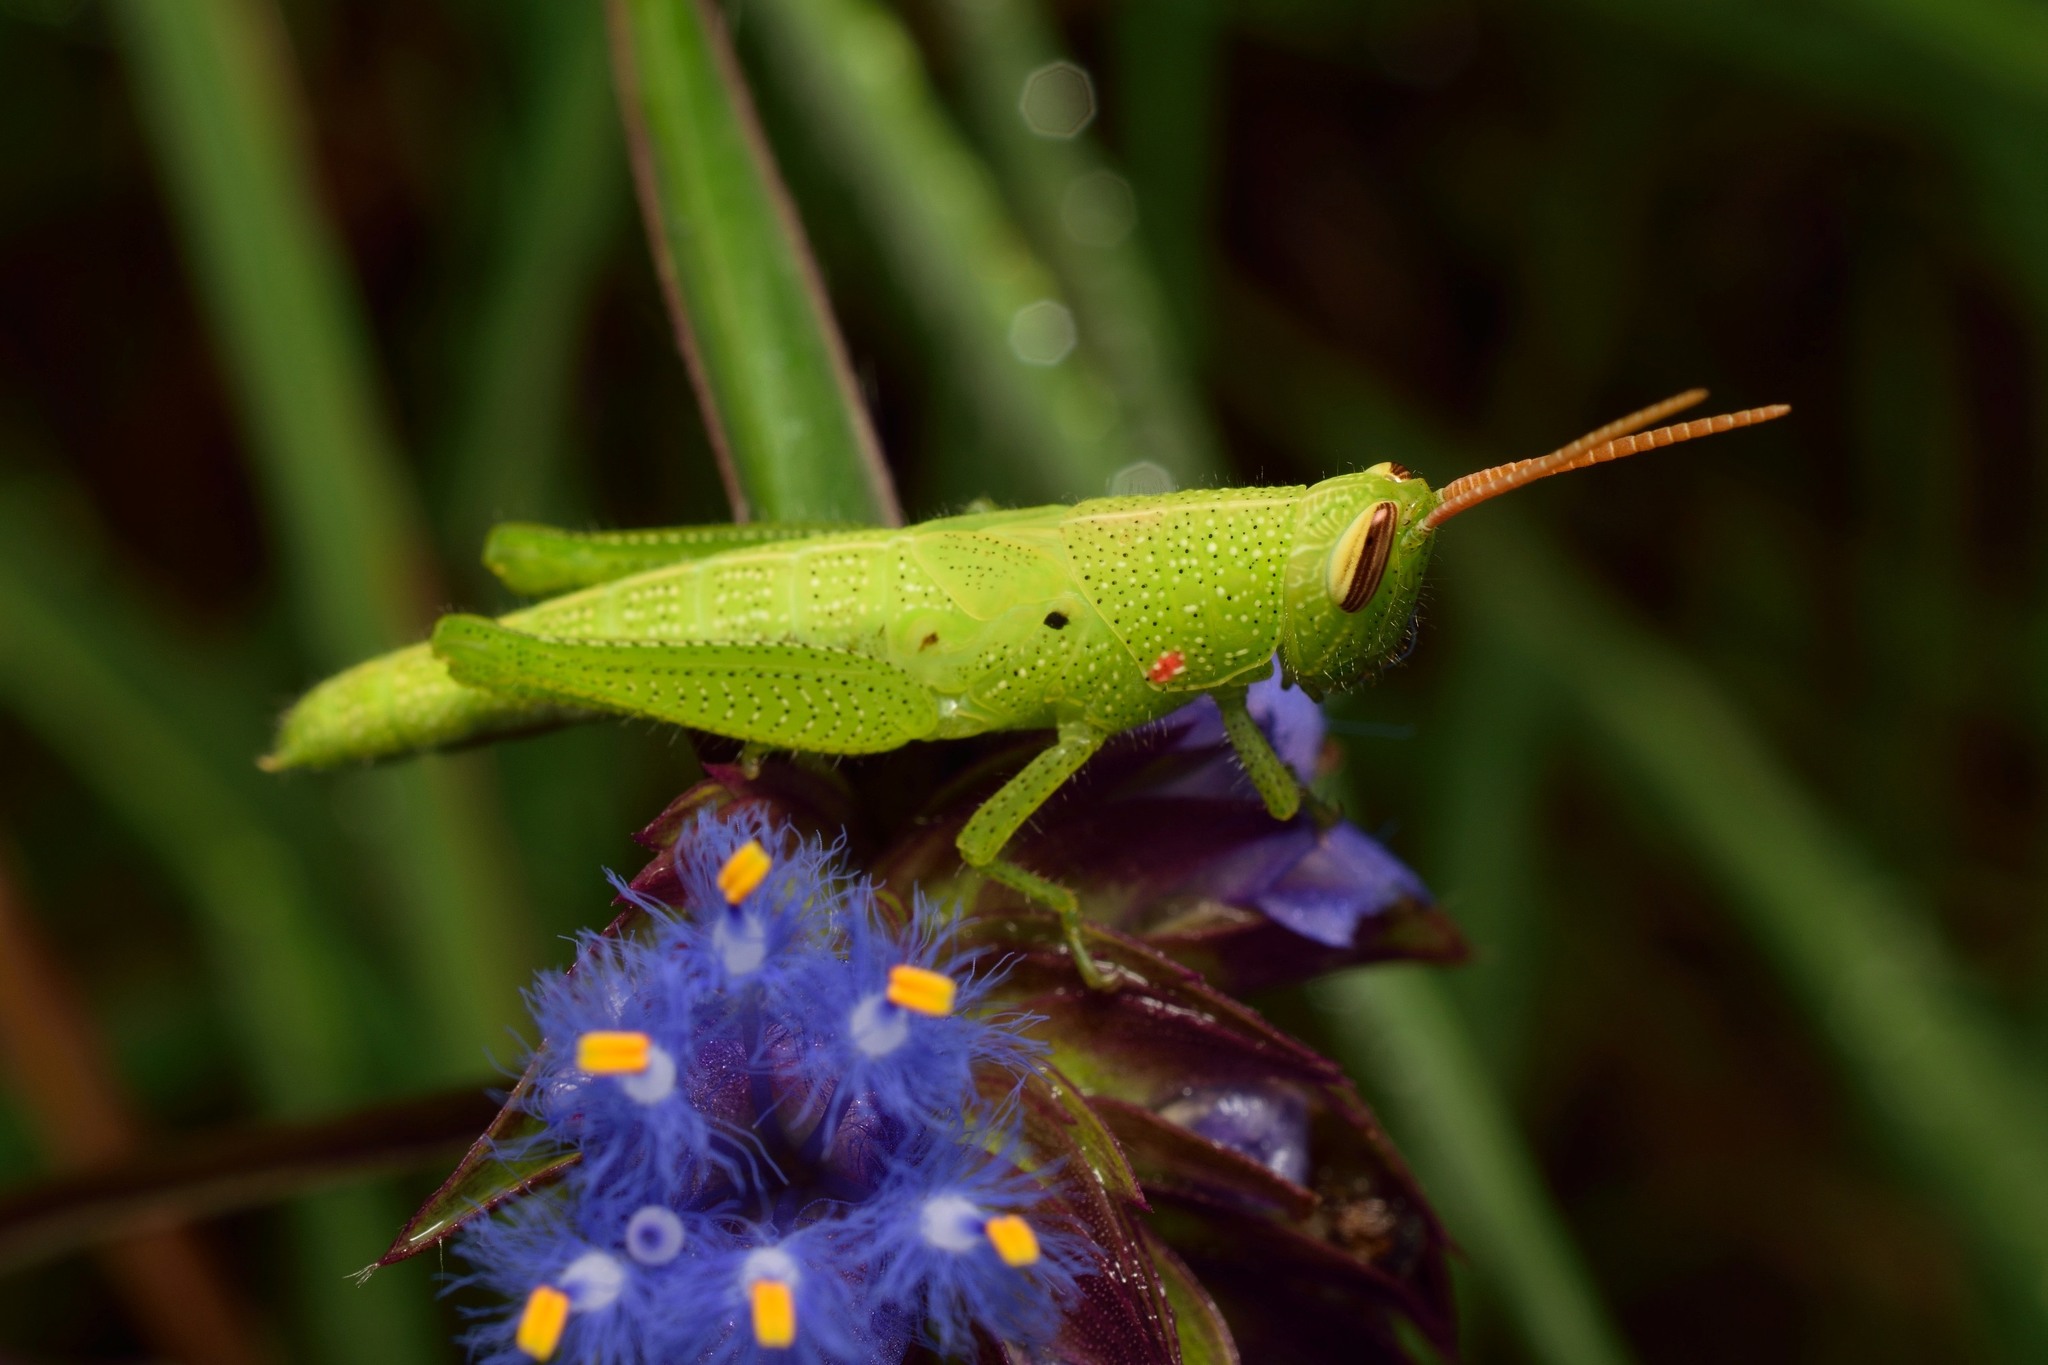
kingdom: Animalia
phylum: Arthropoda
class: Insecta
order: Orthoptera
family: Acrididae
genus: Stenocatantops
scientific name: Stenocatantops splendens
